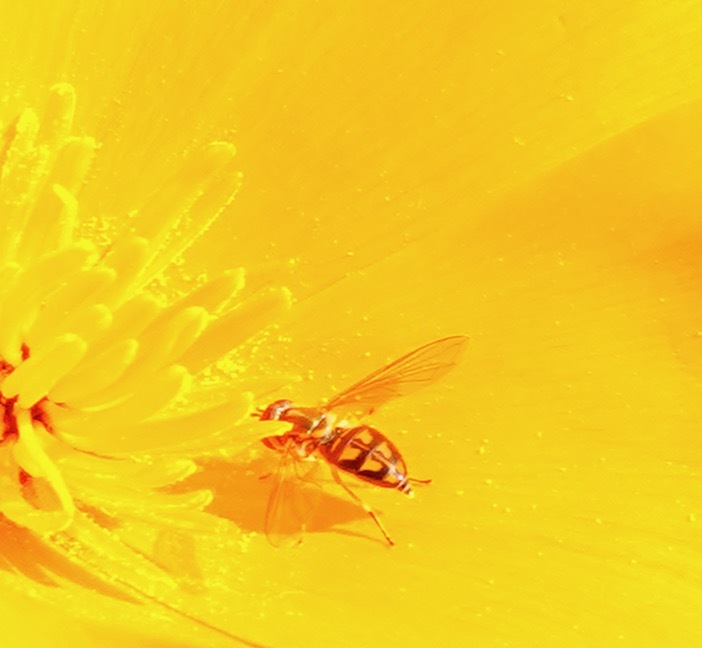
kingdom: Animalia
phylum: Arthropoda
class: Insecta
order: Diptera
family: Syrphidae
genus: Toxomerus
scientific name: Toxomerus marginatus
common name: Syrphid fly
